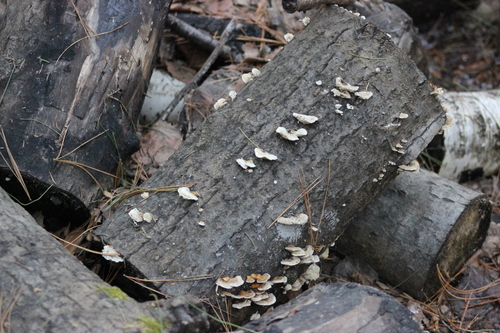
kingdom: Fungi
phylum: Basidiomycota
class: Agaricomycetes
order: Polyporales
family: Polyporaceae
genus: Trametes
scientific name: Trametes ochracea
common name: Ochre bracket
